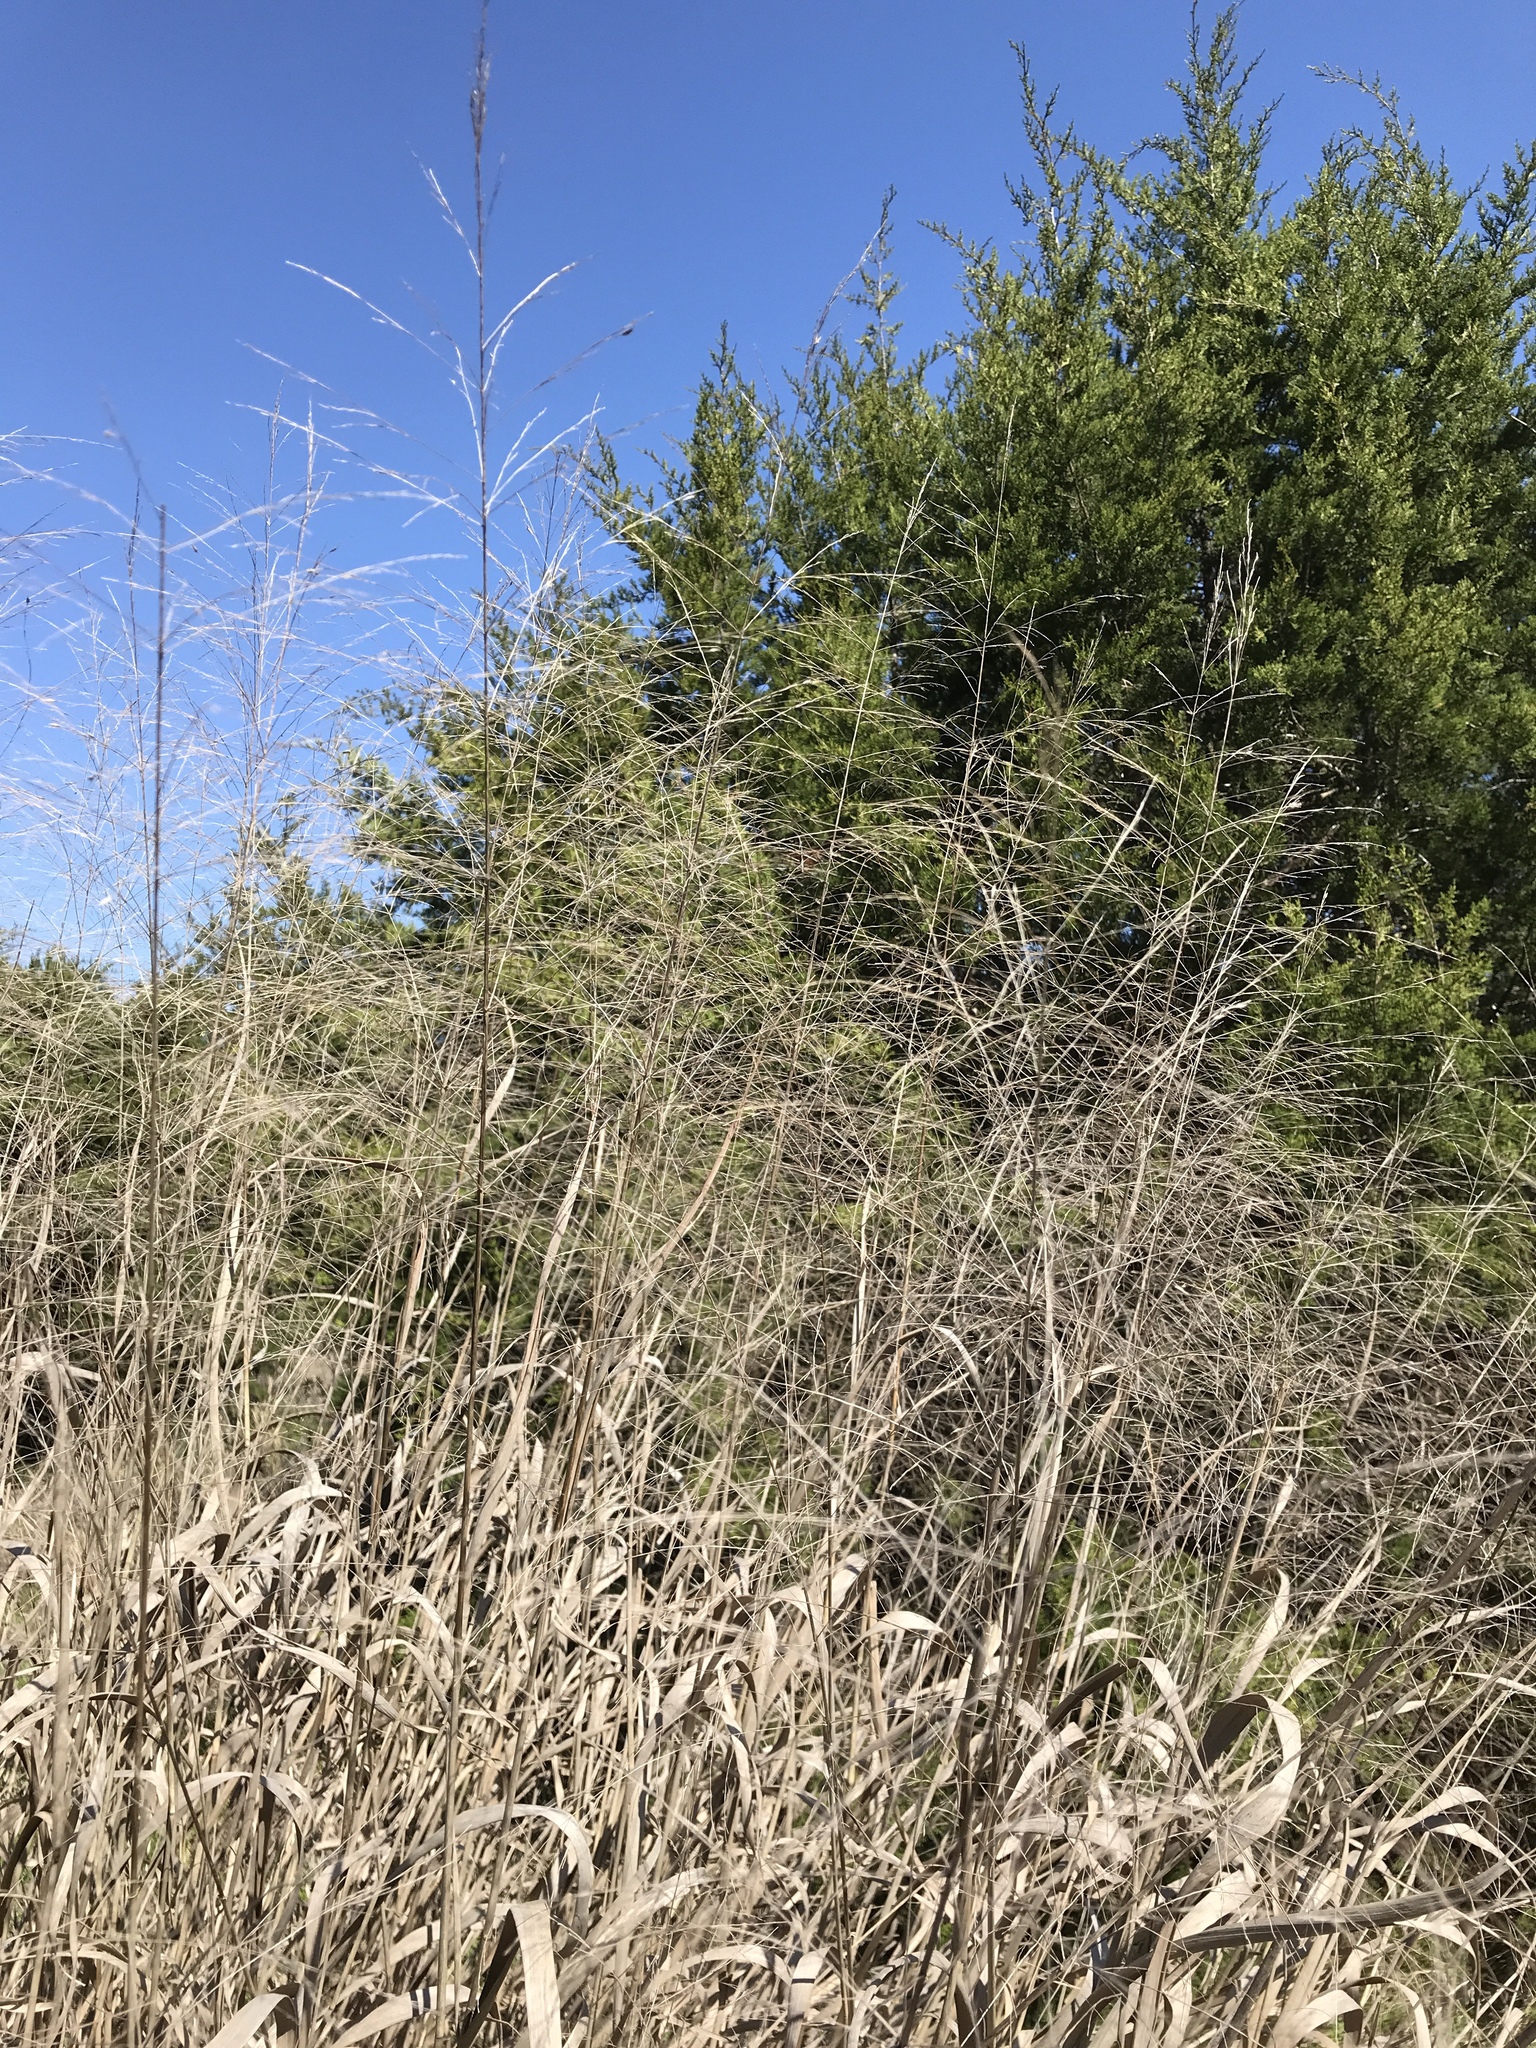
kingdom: Plantae
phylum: Tracheophyta
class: Liliopsida
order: Poales
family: Poaceae
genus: Panicum
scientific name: Panicum virgatum
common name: Switchgrass
